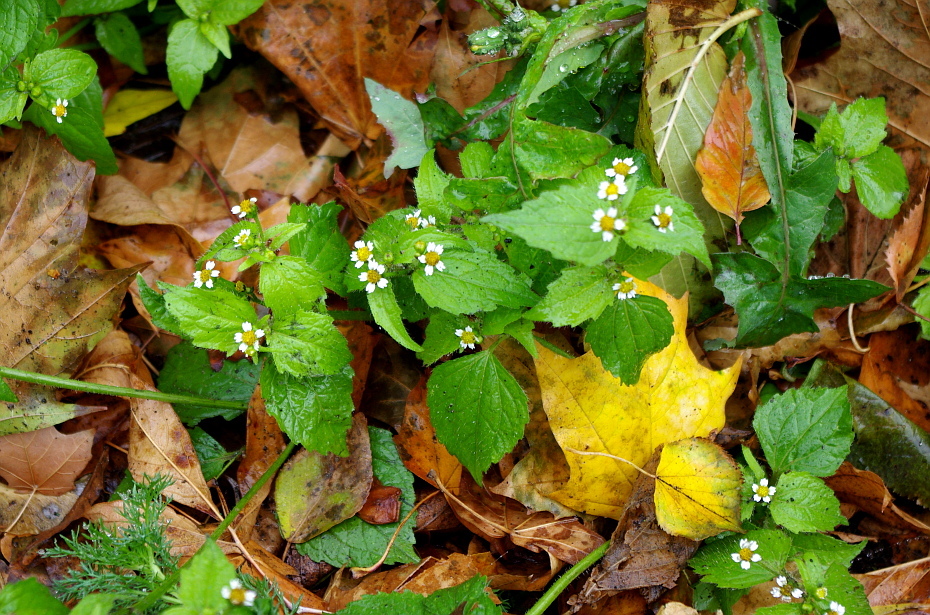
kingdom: Plantae
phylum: Tracheophyta
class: Magnoliopsida
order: Asterales
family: Asteraceae
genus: Galinsoga
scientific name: Galinsoga quadriradiata
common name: Shaggy soldier
